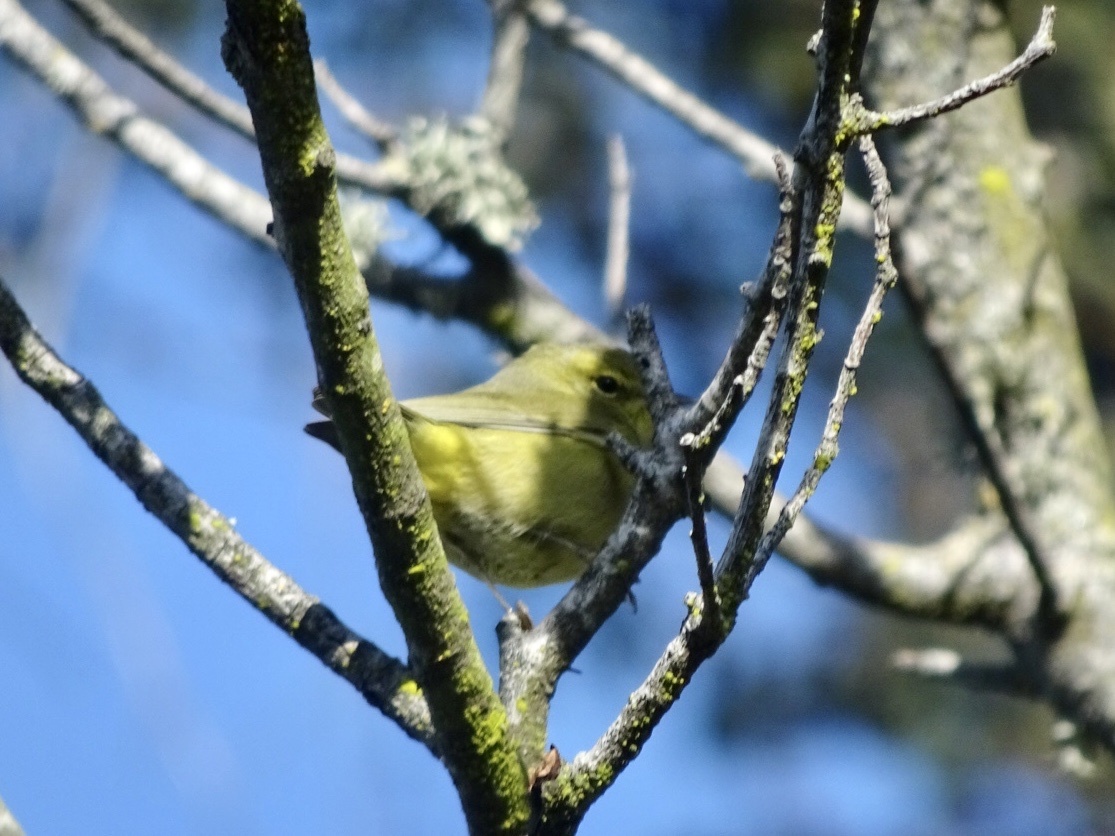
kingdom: Animalia
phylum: Chordata
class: Aves
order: Passeriformes
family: Parulidae
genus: Leiothlypis
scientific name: Leiothlypis celata
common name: Orange-crowned warbler
